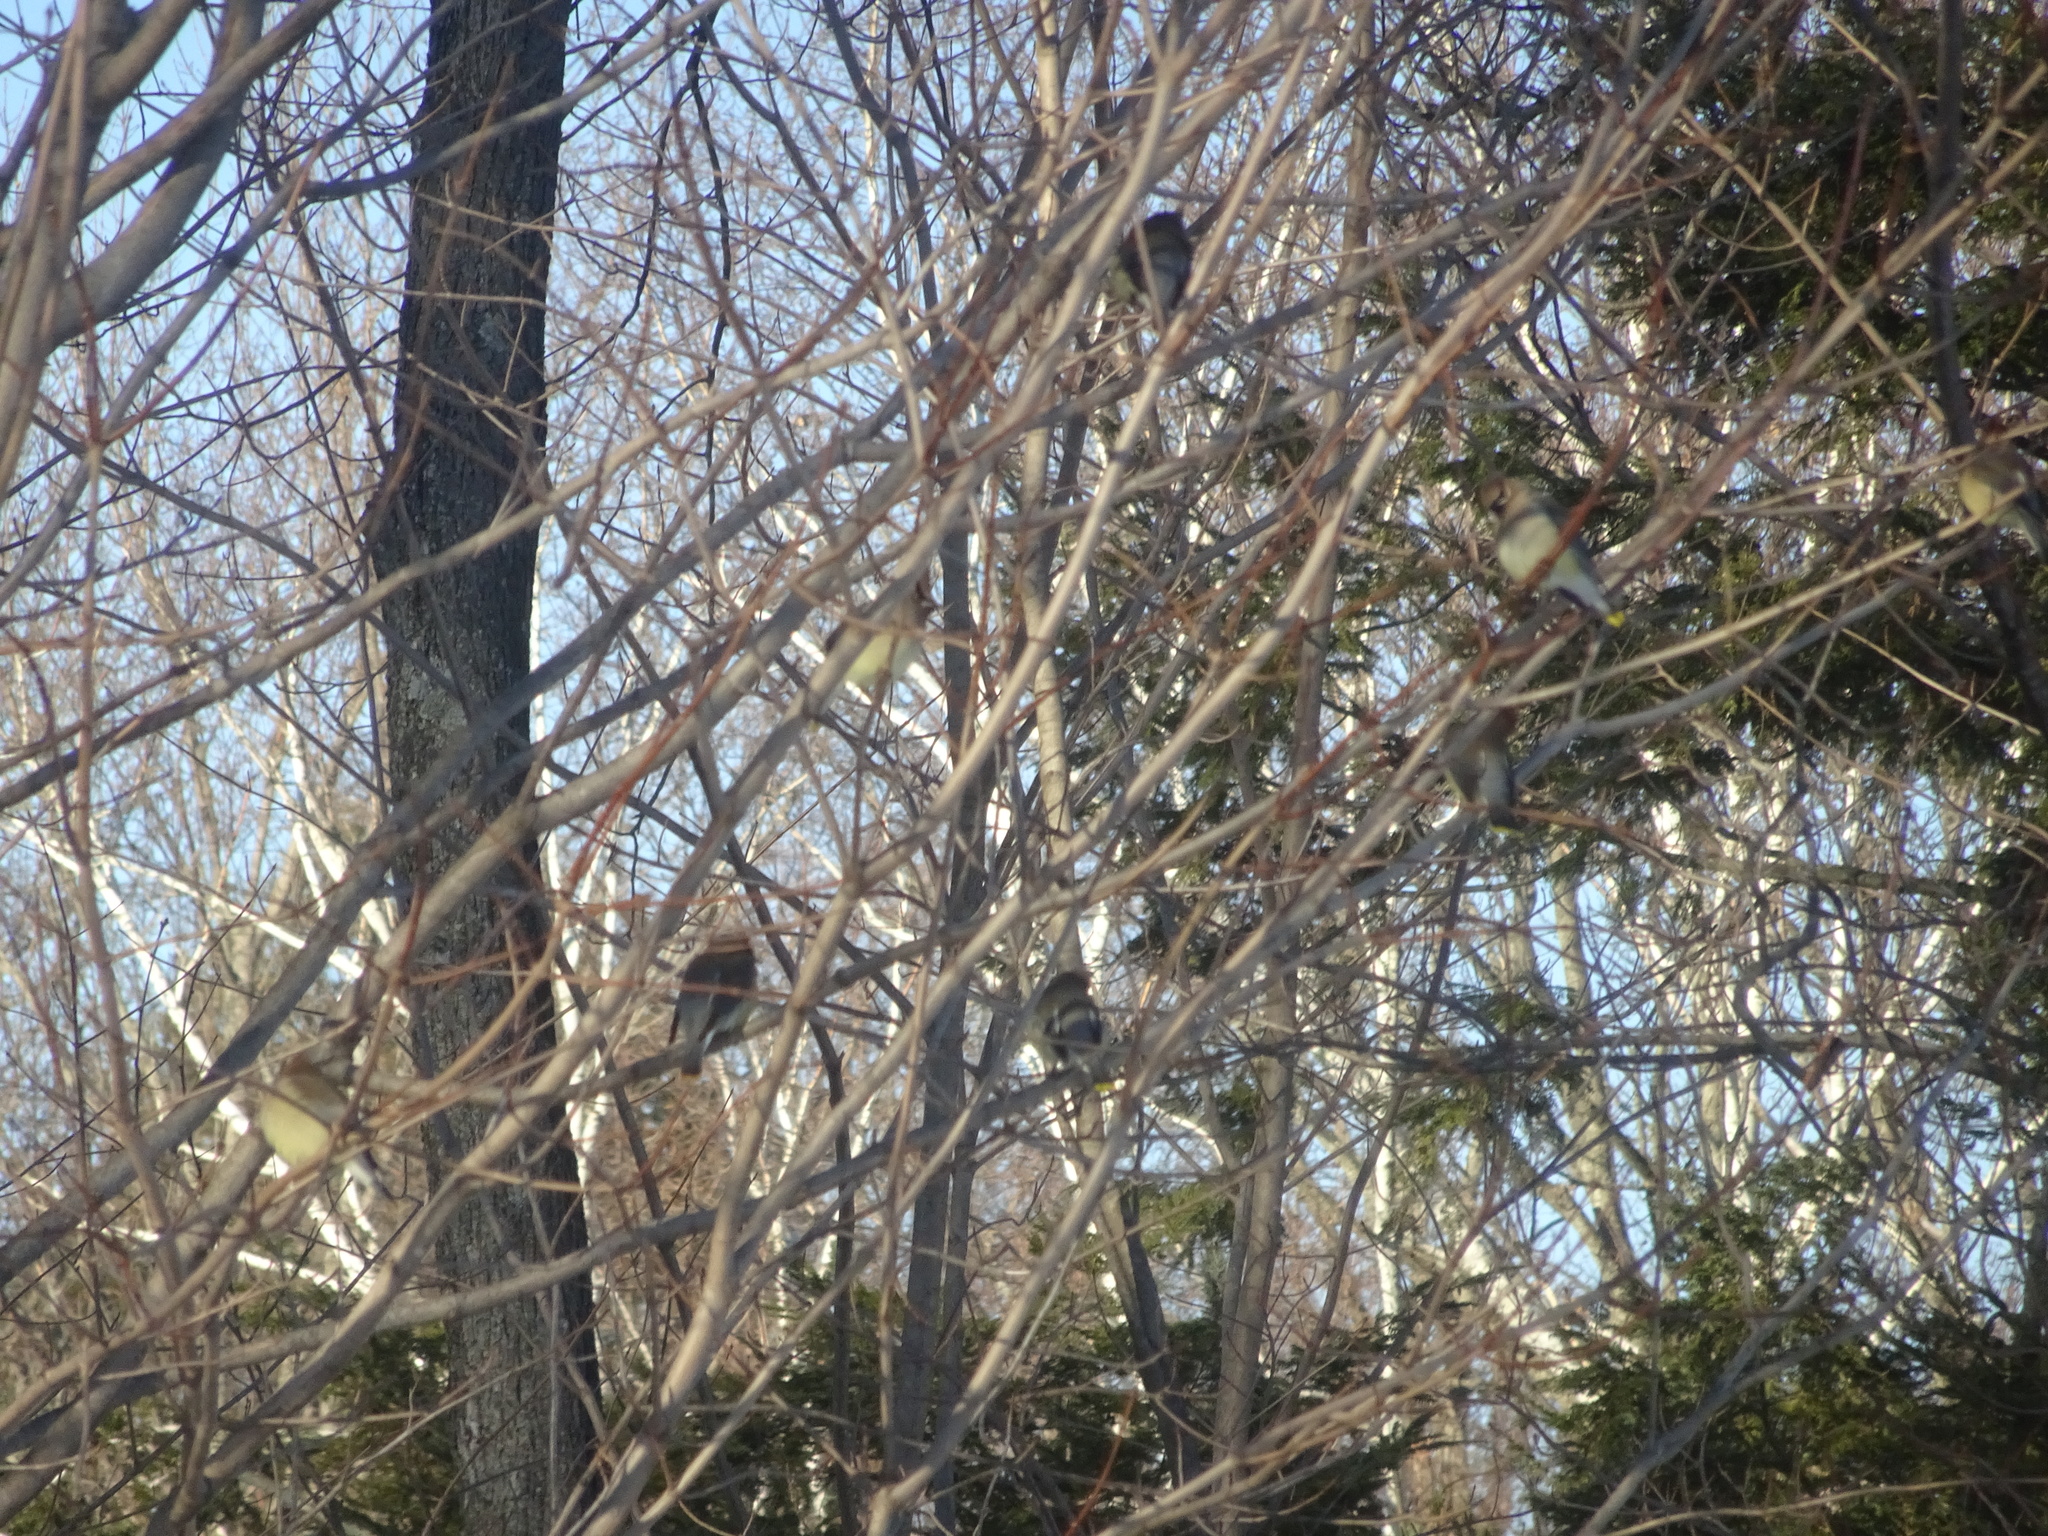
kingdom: Animalia
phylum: Chordata
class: Aves
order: Passeriformes
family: Bombycillidae
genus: Bombycilla
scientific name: Bombycilla cedrorum
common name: Cedar waxwing
